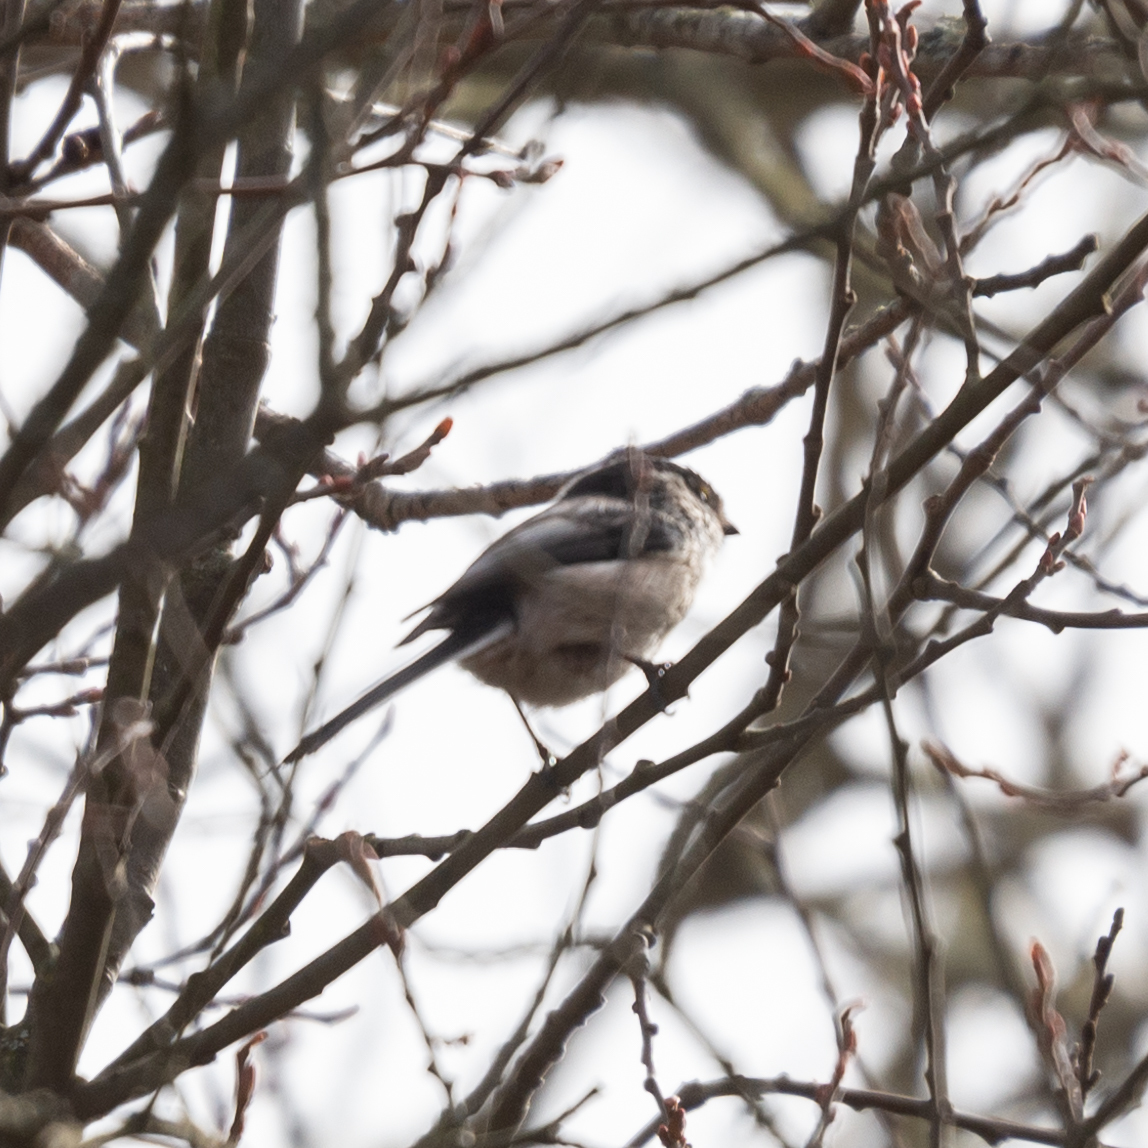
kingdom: Animalia
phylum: Chordata
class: Aves
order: Passeriformes
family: Aegithalidae
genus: Aegithalos
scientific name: Aegithalos caudatus
